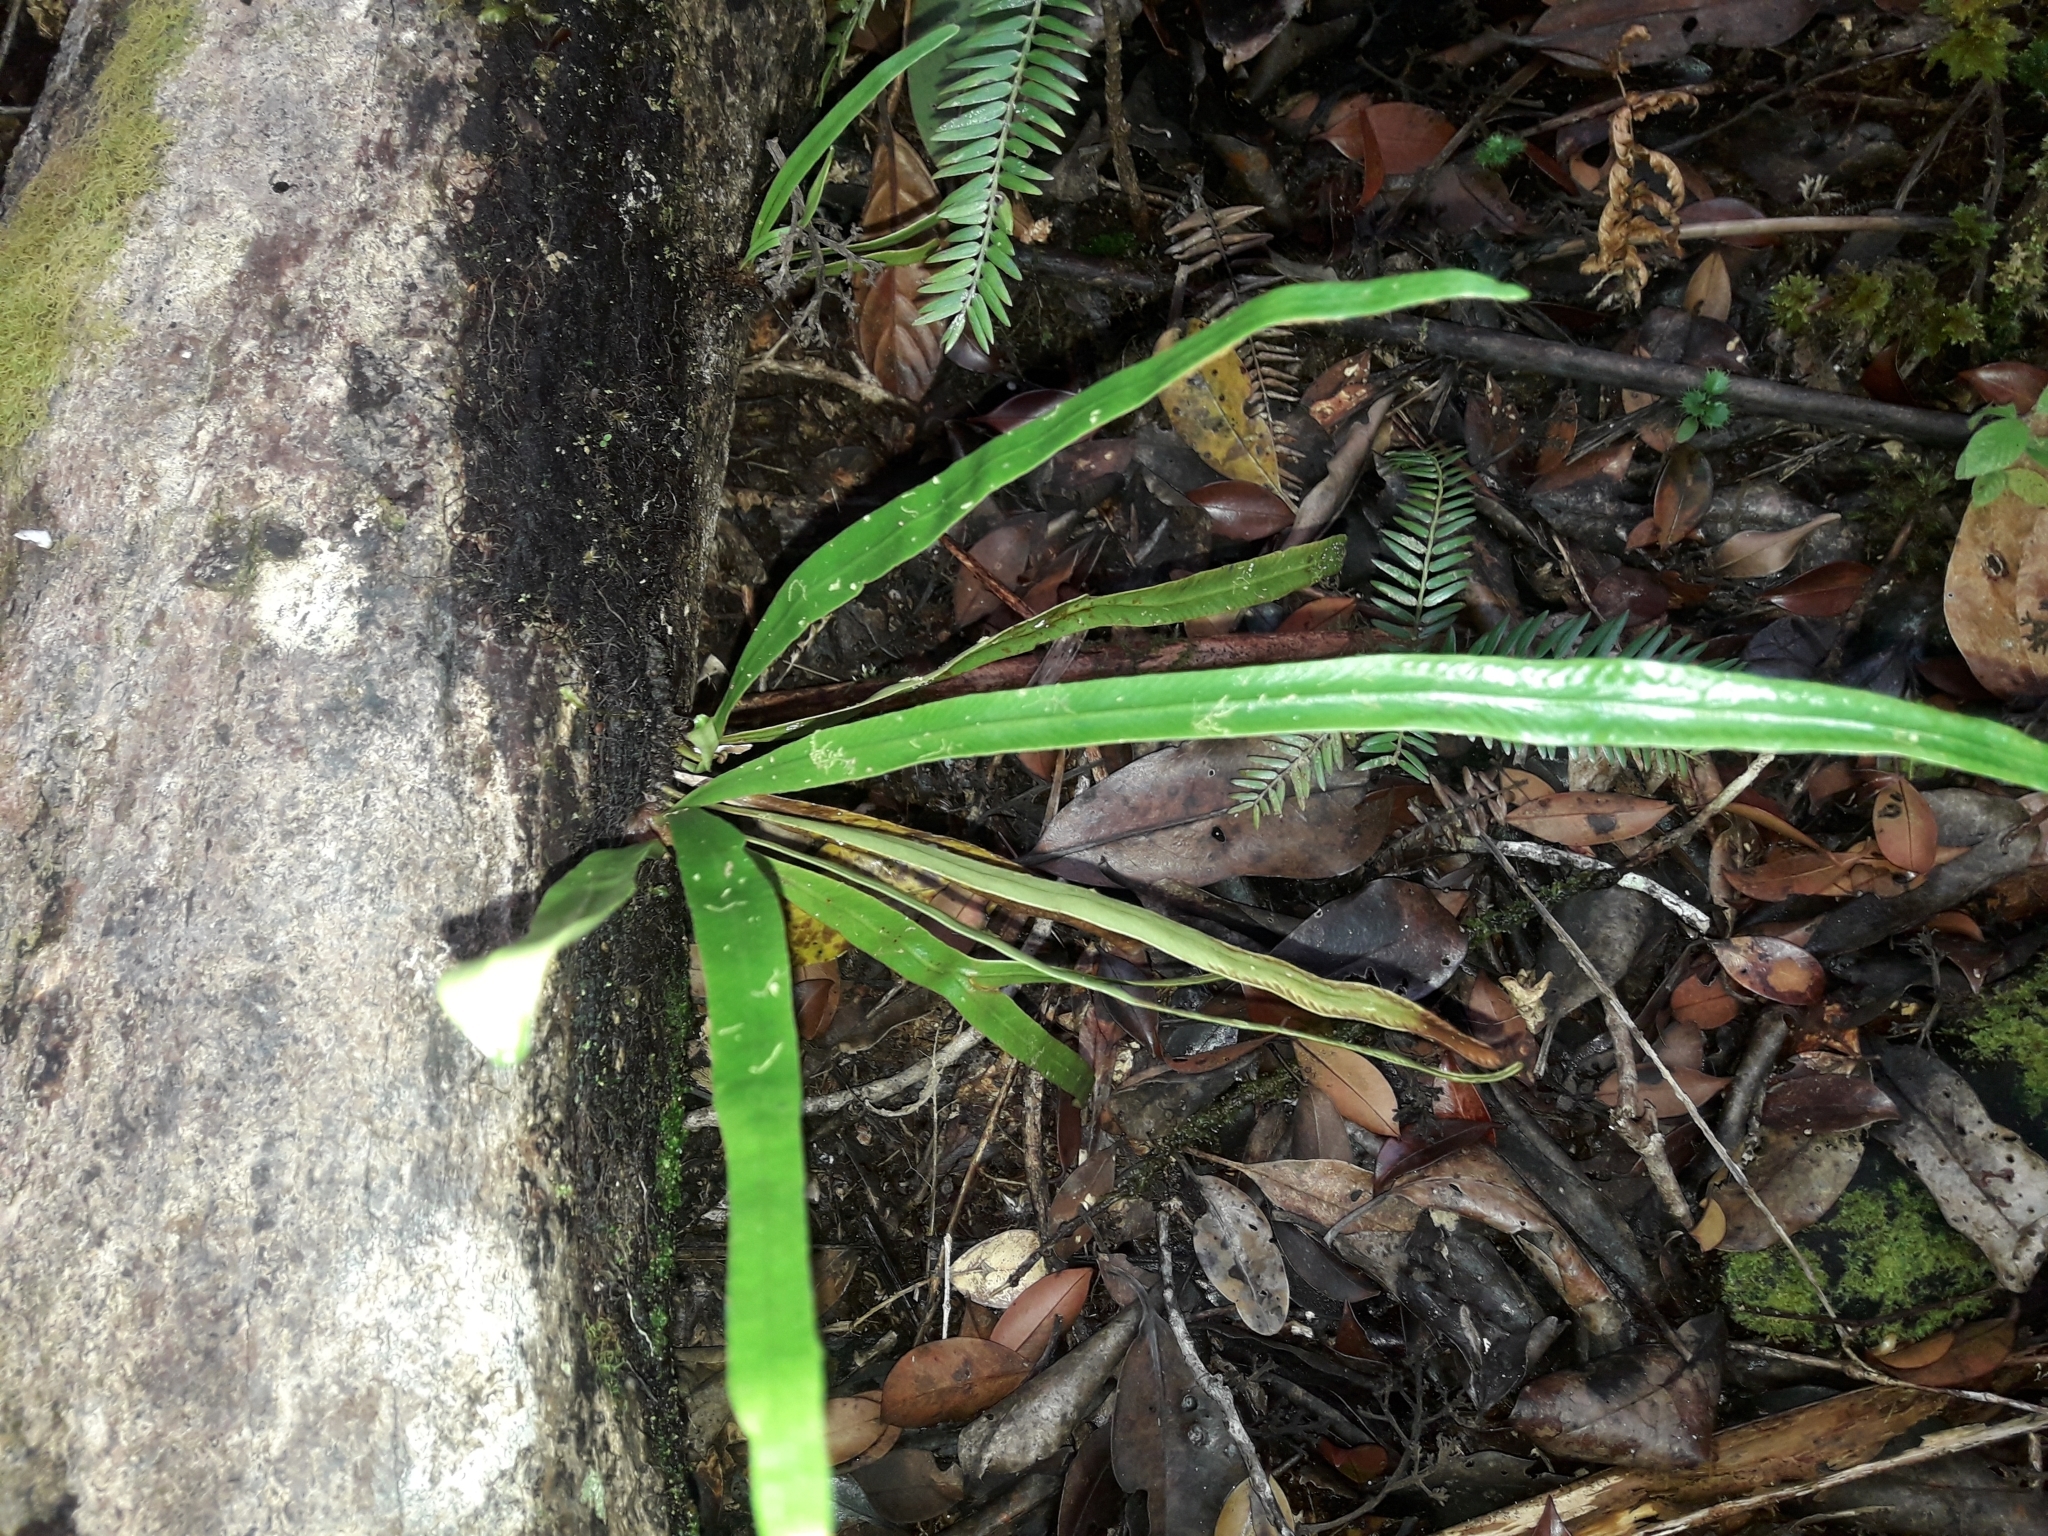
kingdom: Plantae
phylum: Tracheophyta
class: Polypodiopsida
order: Polypodiales
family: Polypodiaceae
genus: Grammitis
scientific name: Grammitis deplanchei
